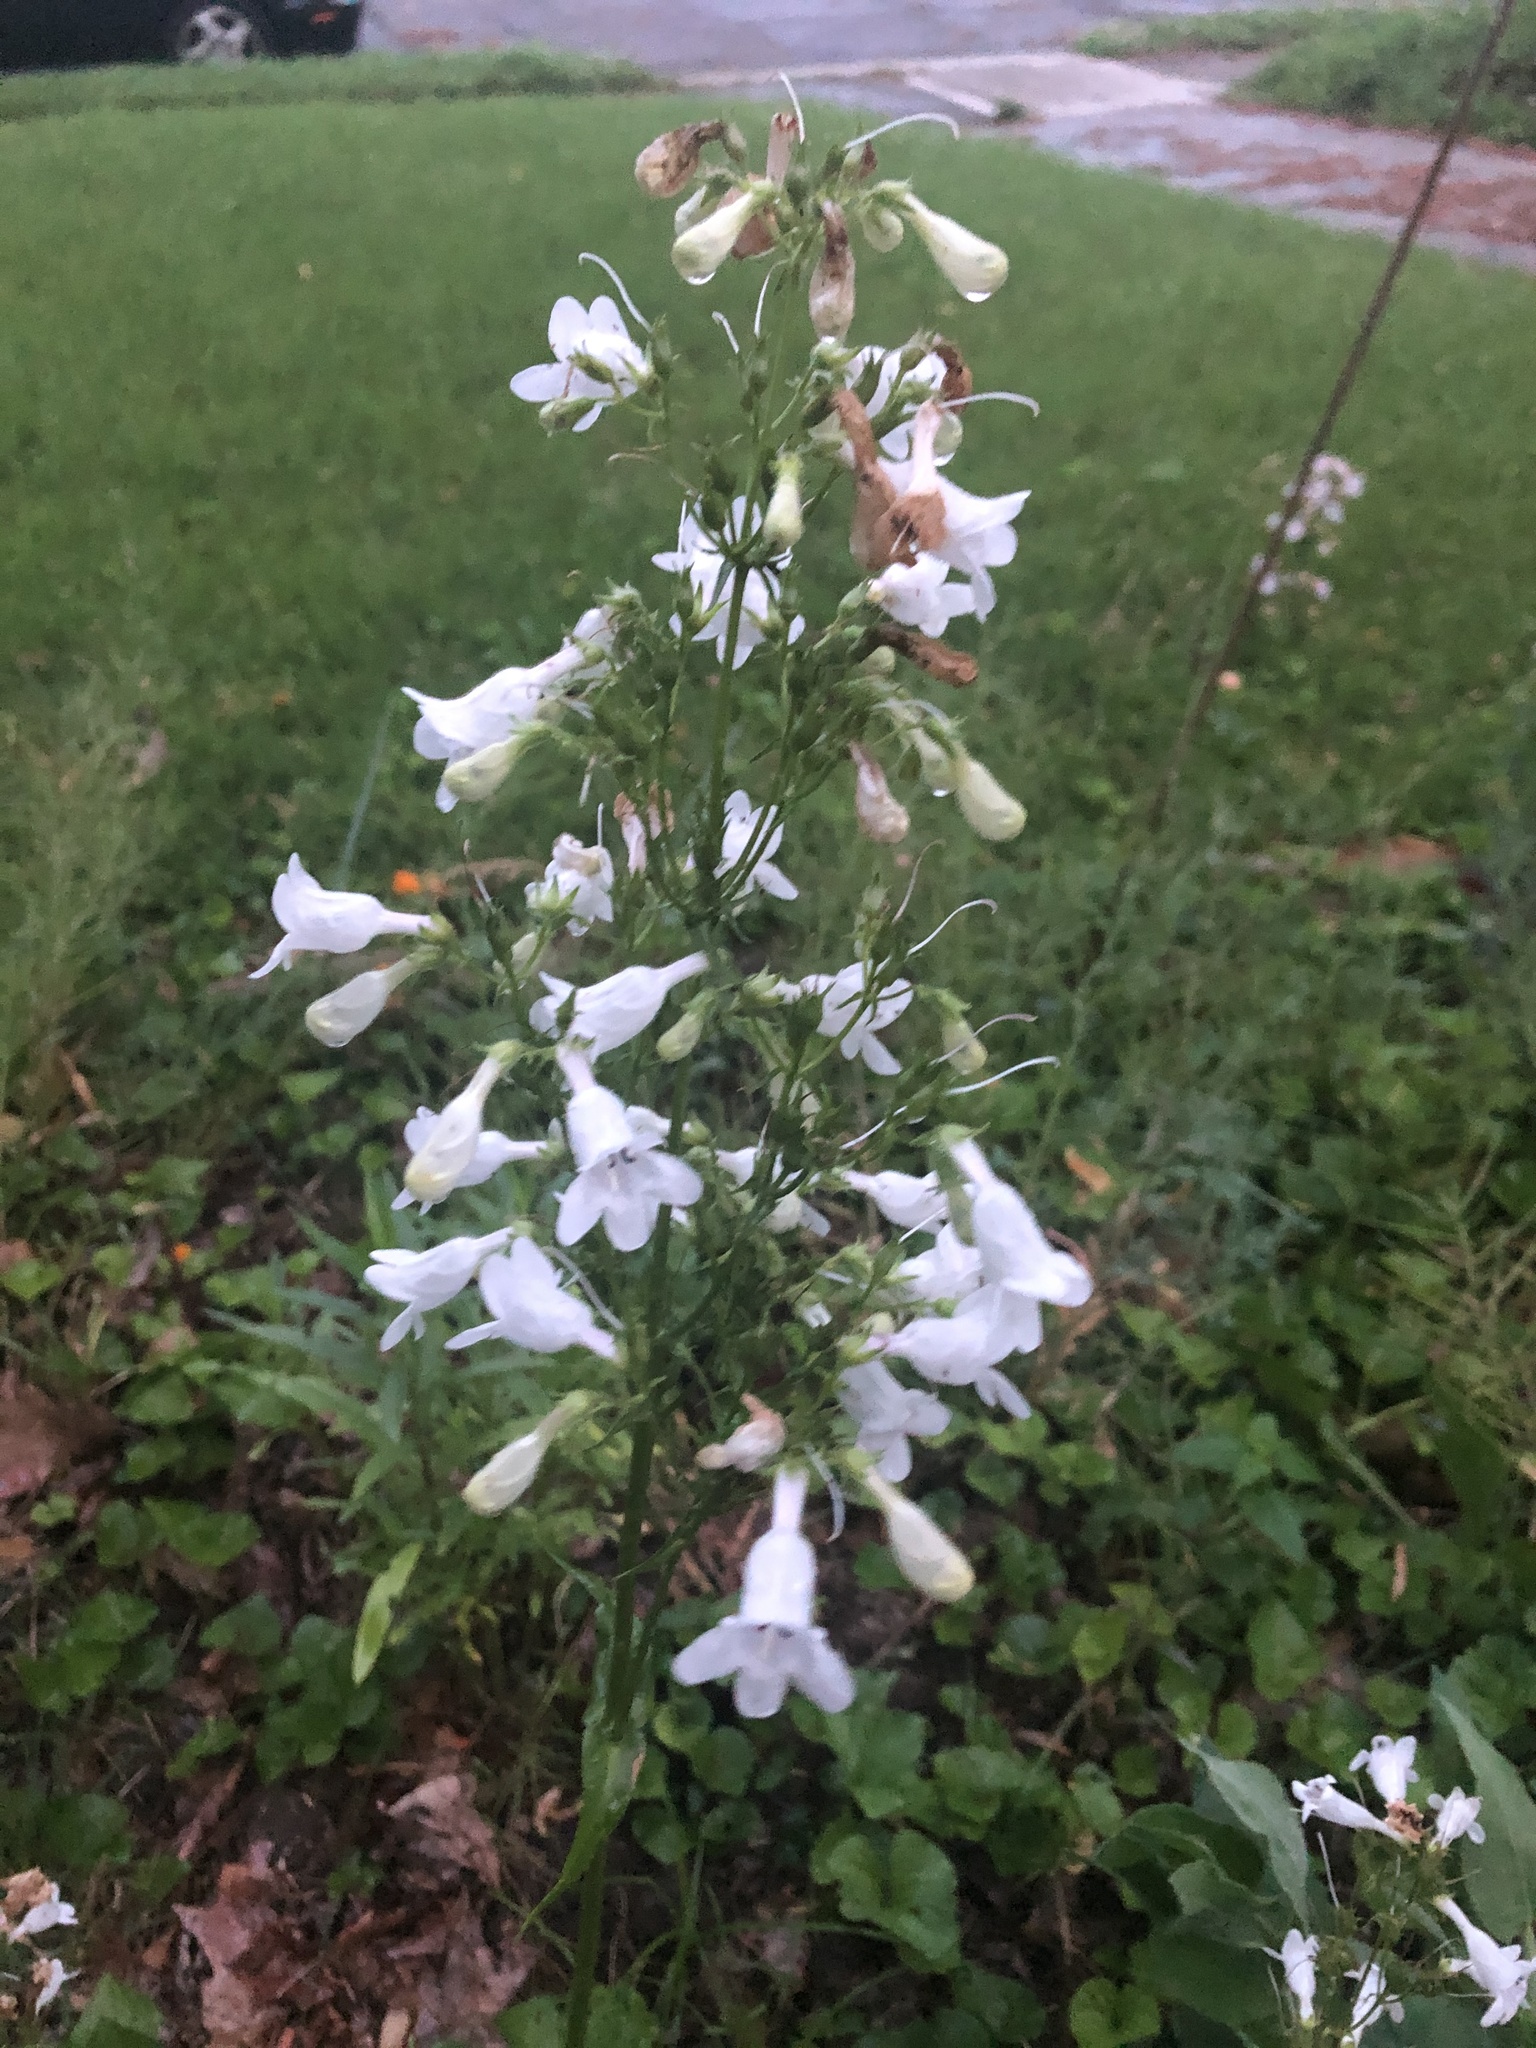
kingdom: Plantae
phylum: Tracheophyta
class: Magnoliopsida
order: Lamiales
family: Plantaginaceae
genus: Penstemon
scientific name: Penstemon digitalis
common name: Foxglove beardtongue
